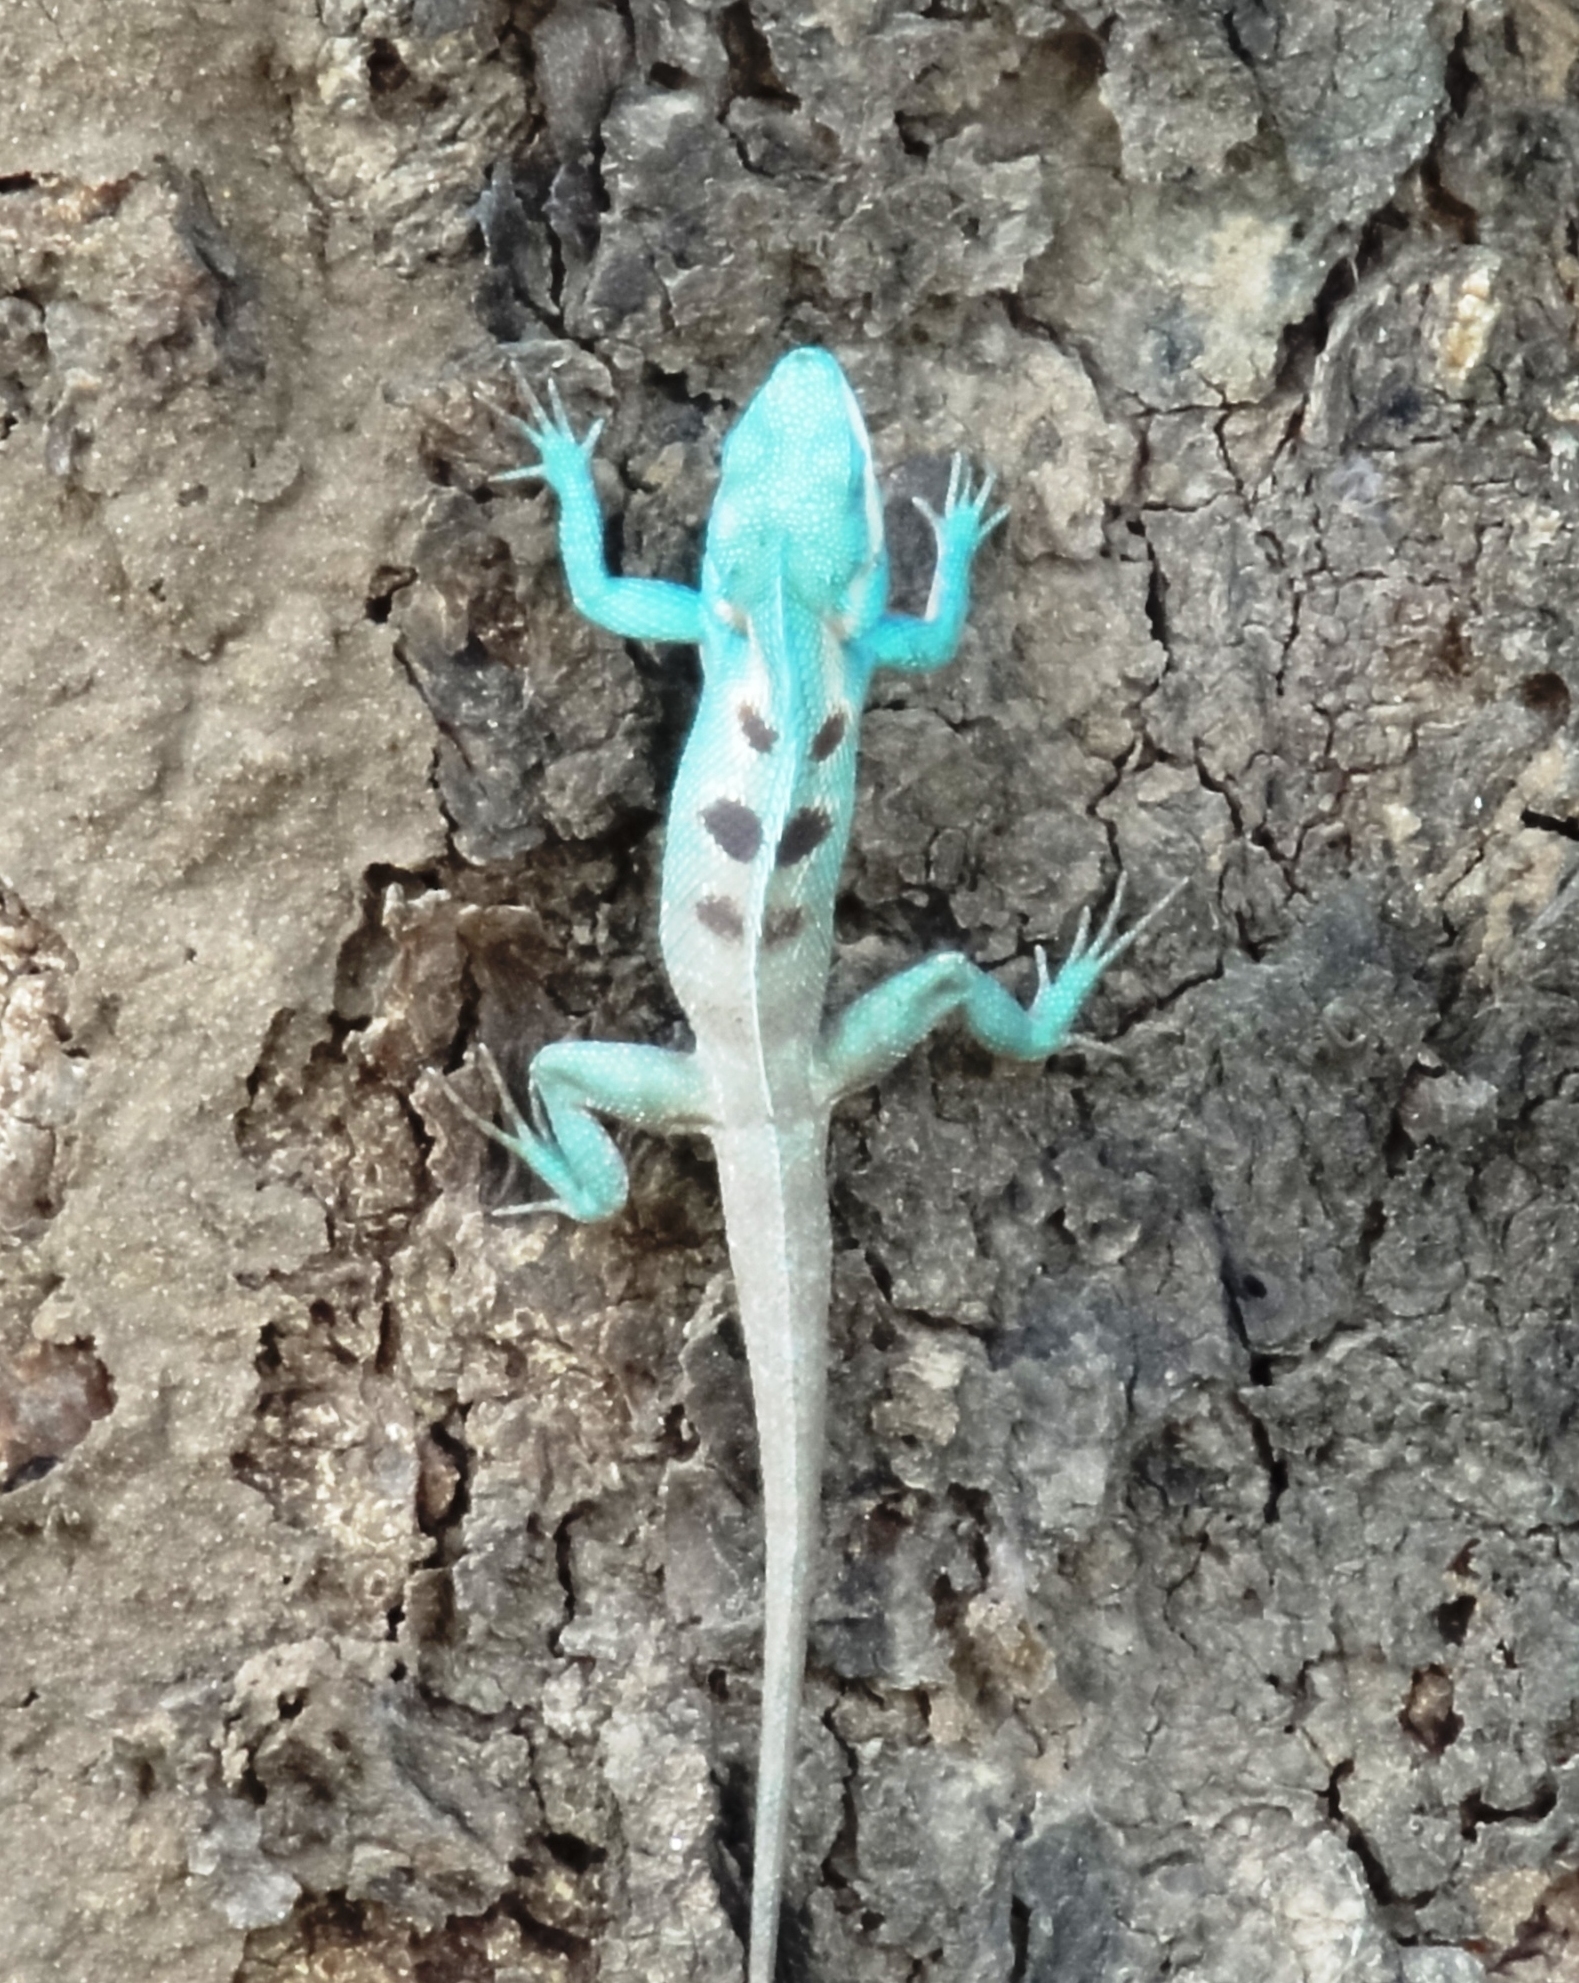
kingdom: Animalia
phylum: Chordata
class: Squamata
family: Agamidae
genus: Calotes
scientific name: Calotes goetzi
